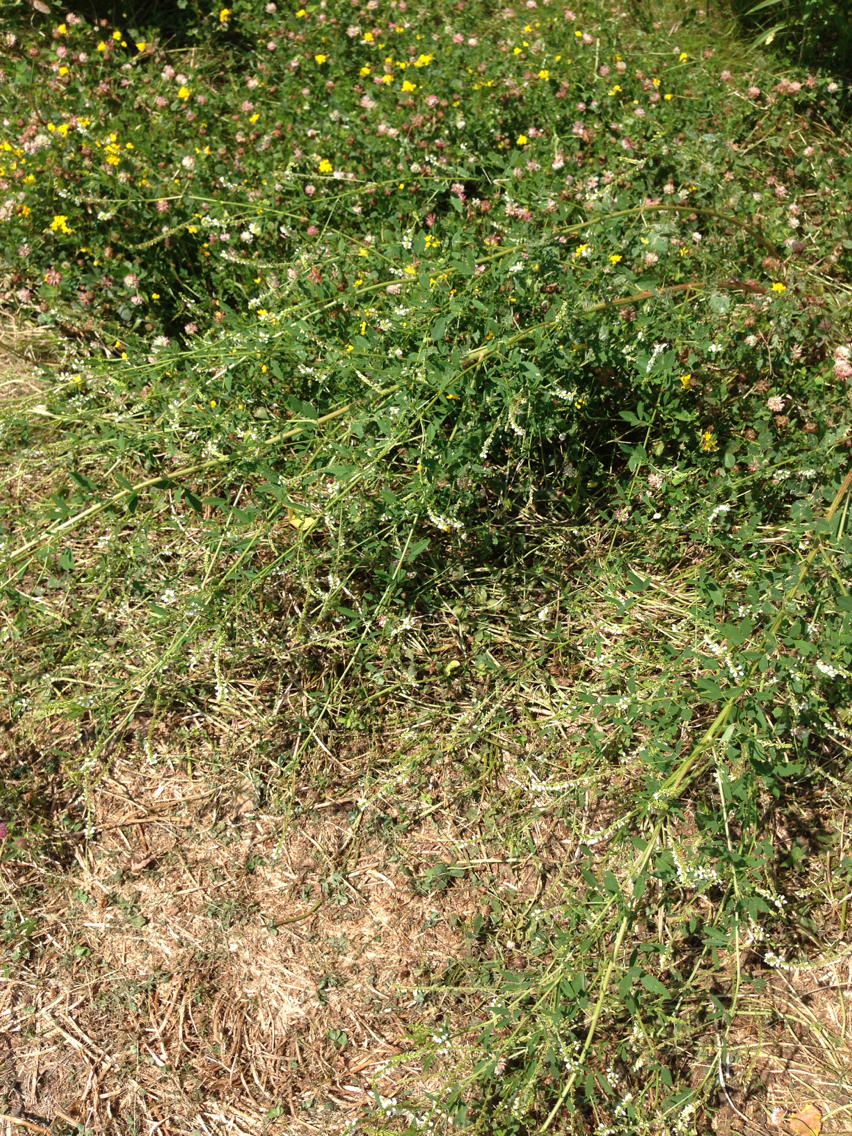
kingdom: Plantae
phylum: Tracheophyta
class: Magnoliopsida
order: Fabales
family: Fabaceae
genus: Melilotus
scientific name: Melilotus albus
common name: White melilot
